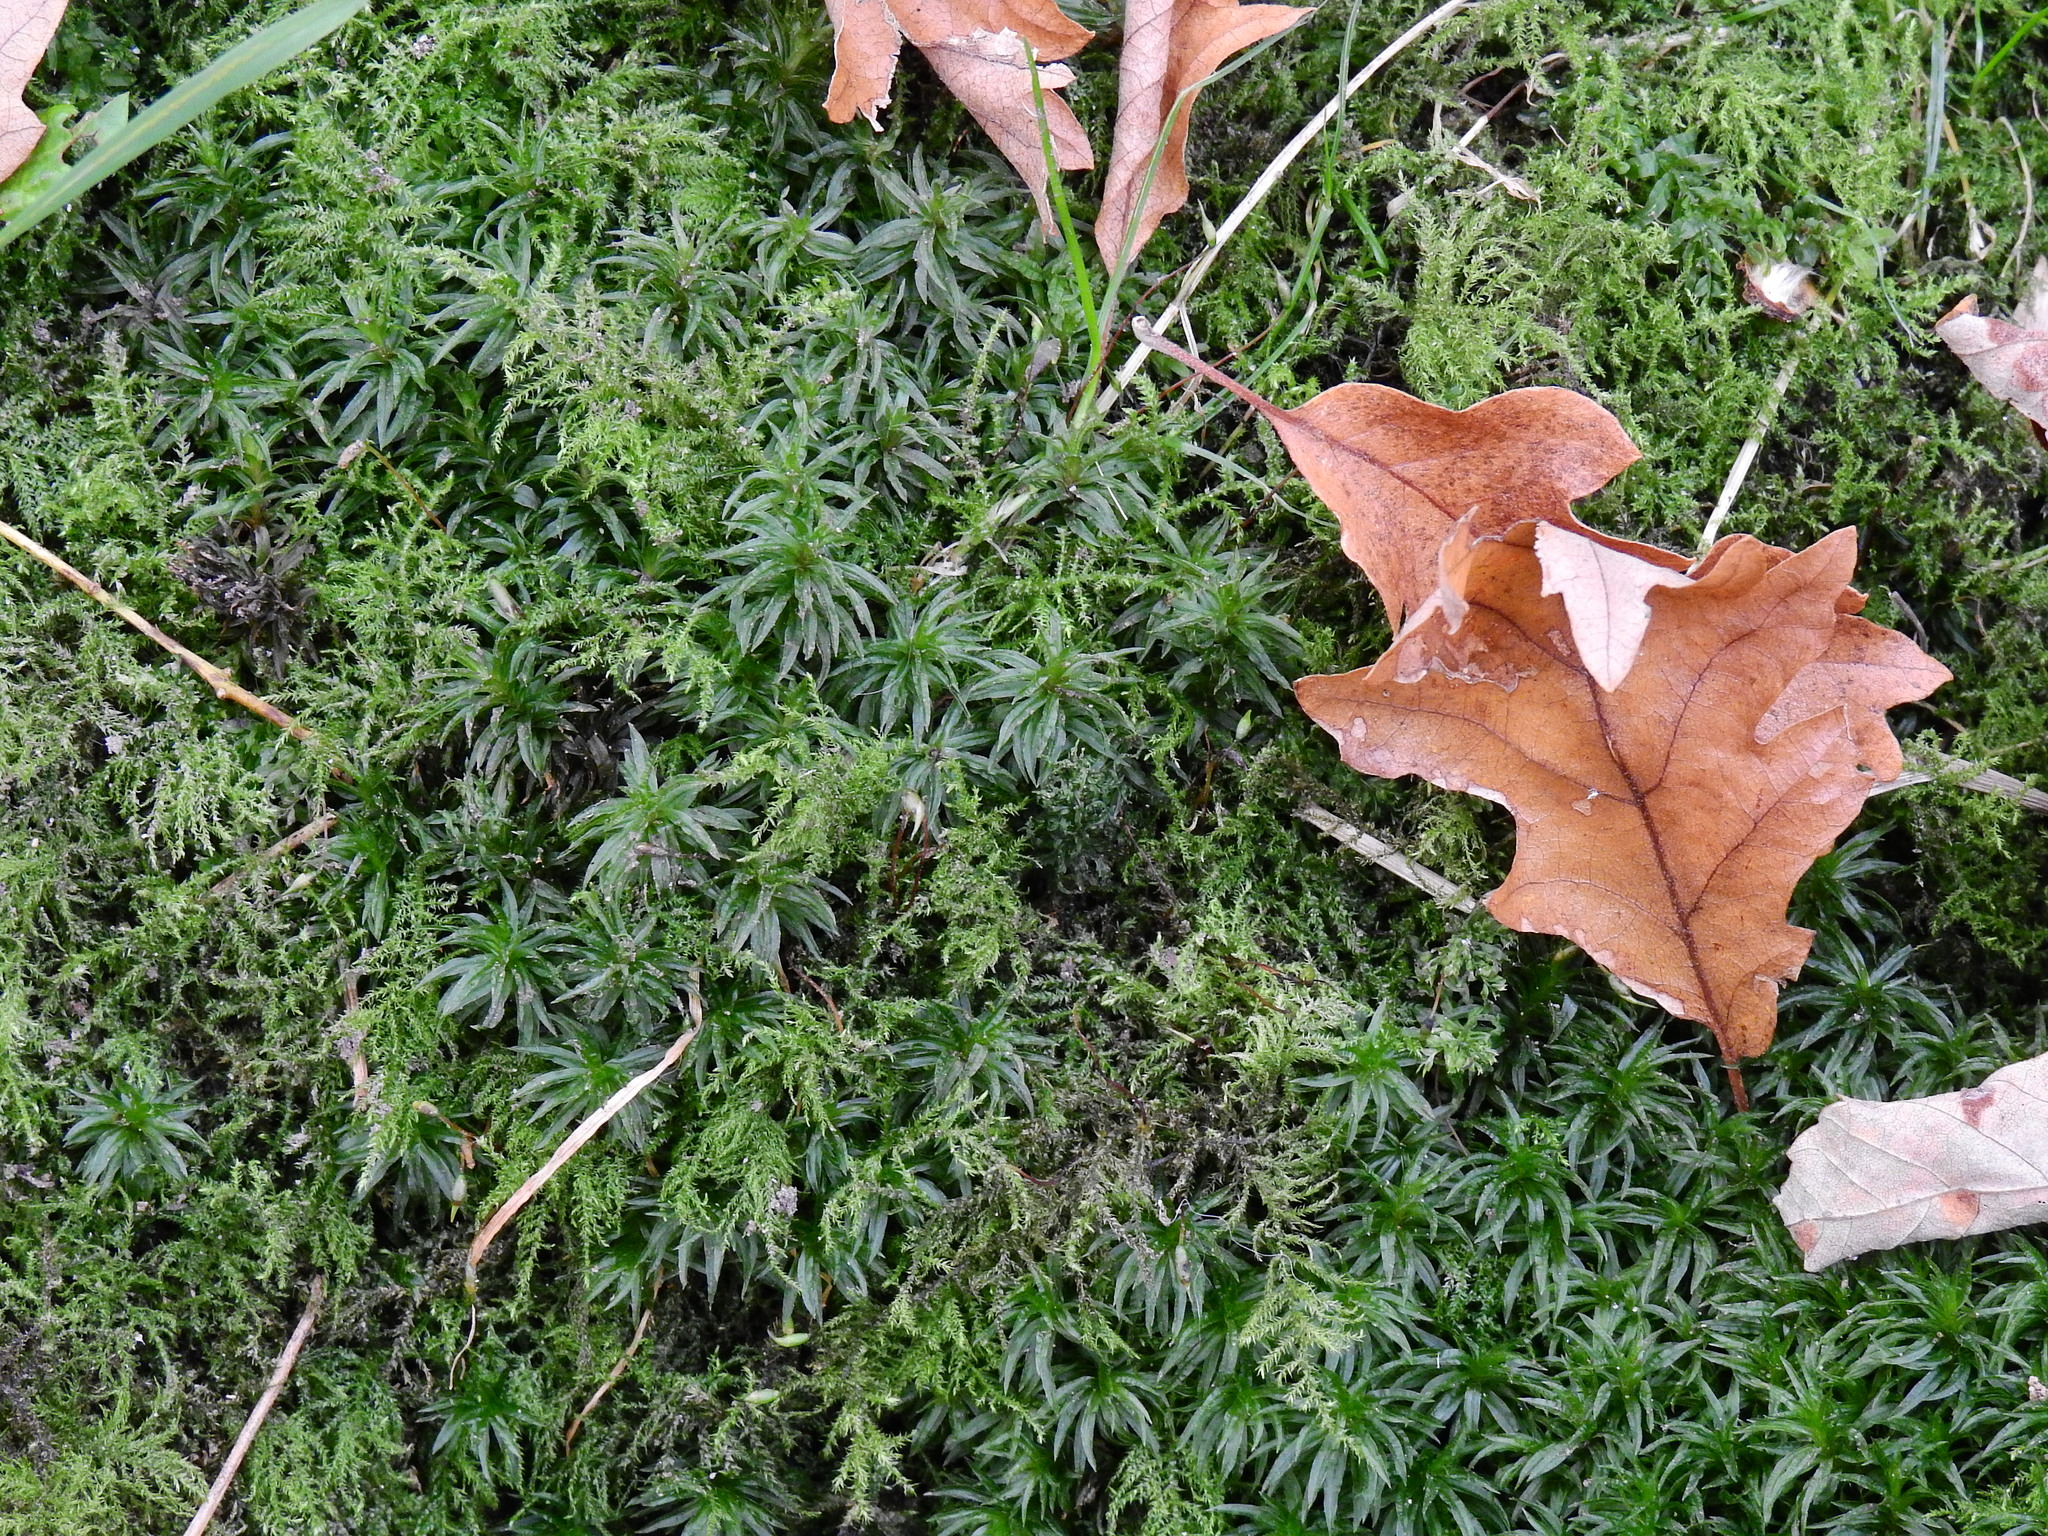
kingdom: Plantae
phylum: Bryophyta
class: Polytrichopsida
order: Polytrichales
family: Polytrichaceae
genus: Atrichum
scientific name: Atrichum undulatum
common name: Common smoothcap
